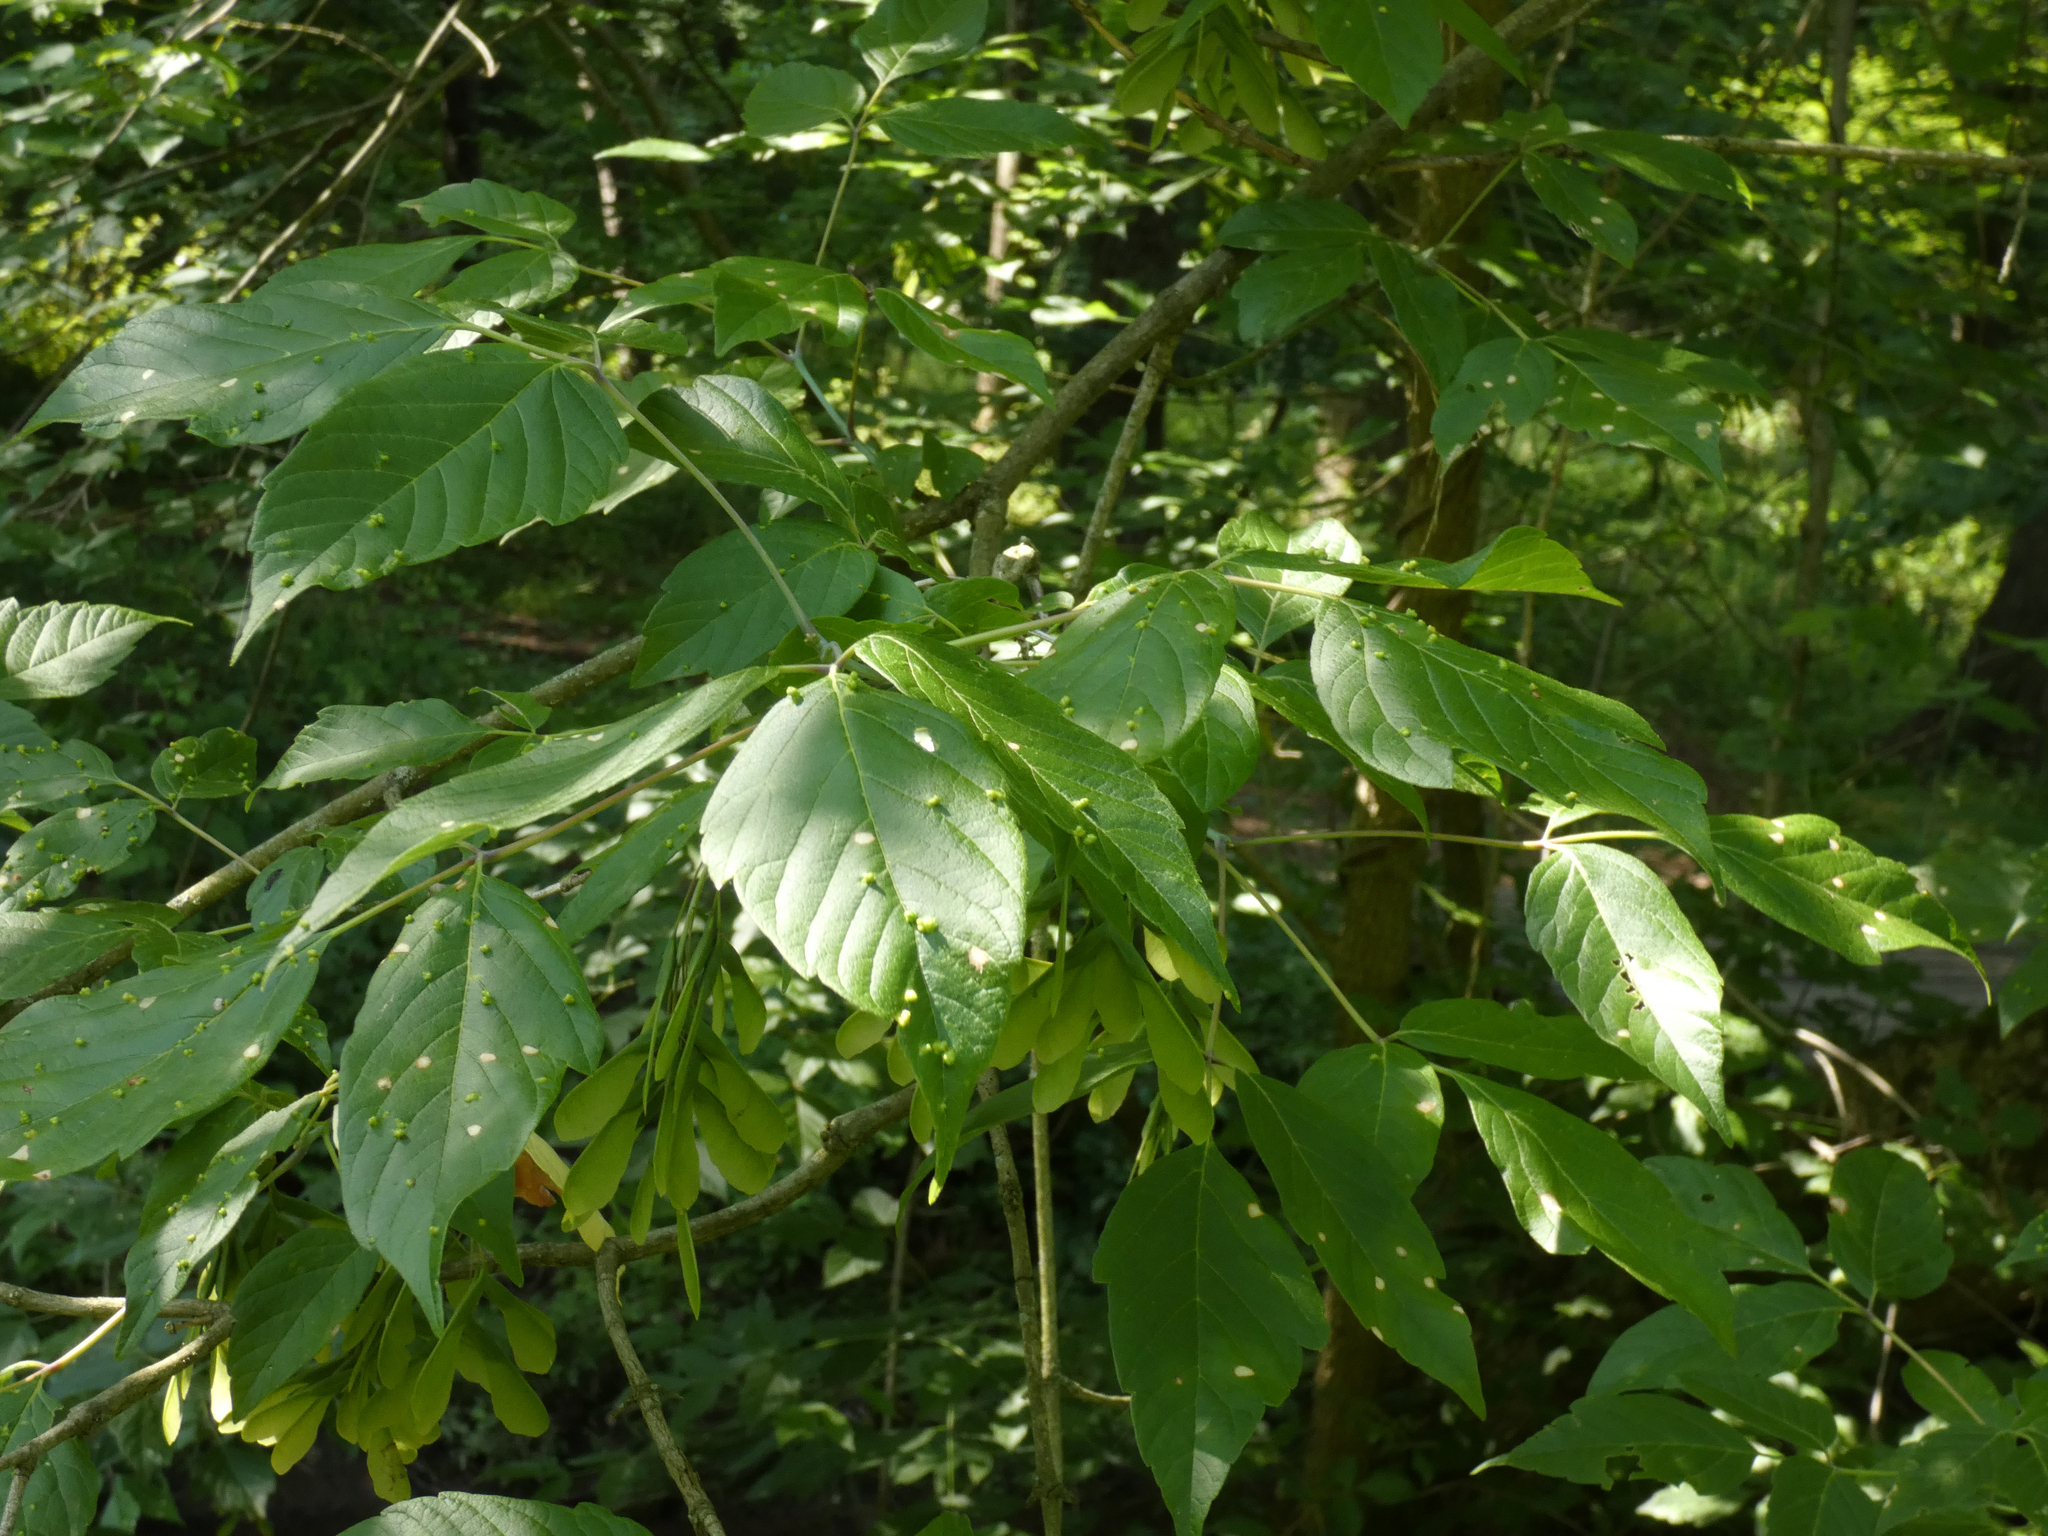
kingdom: Animalia
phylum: Arthropoda
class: Arachnida
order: Trombidiformes
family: Eriophyidae
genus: Aceria
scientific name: Aceria
